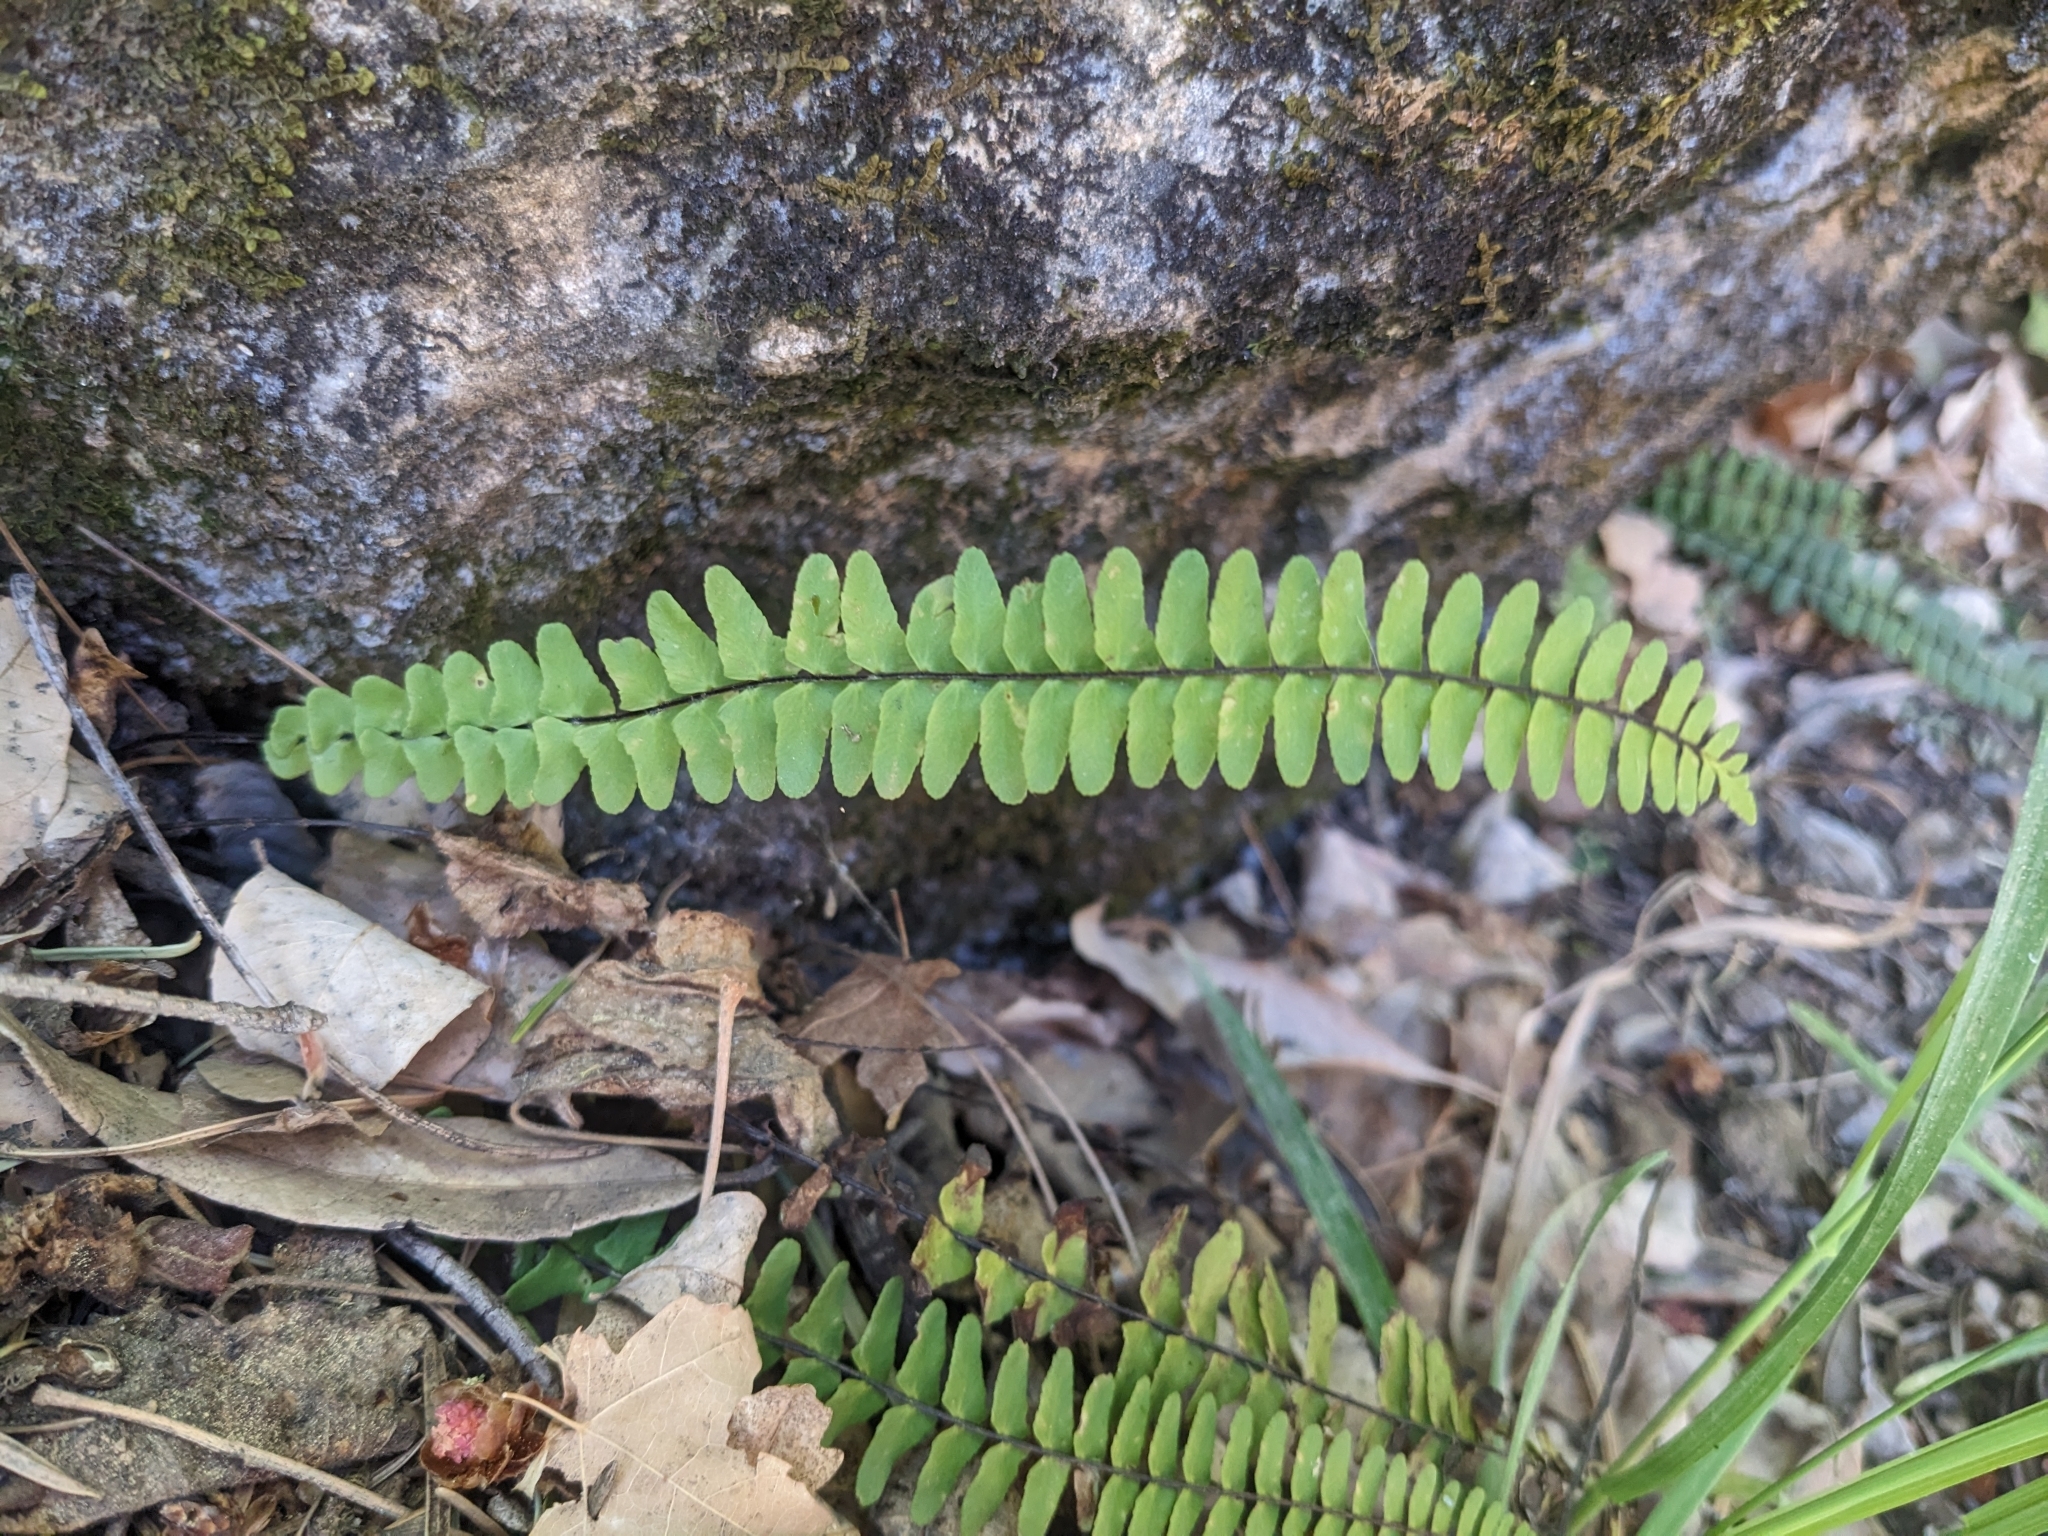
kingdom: Plantae
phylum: Tracheophyta
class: Polypodiopsida
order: Polypodiales
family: Aspleniaceae
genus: Asplenium
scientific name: Asplenium resiliens
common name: Blackstem spleenwort
